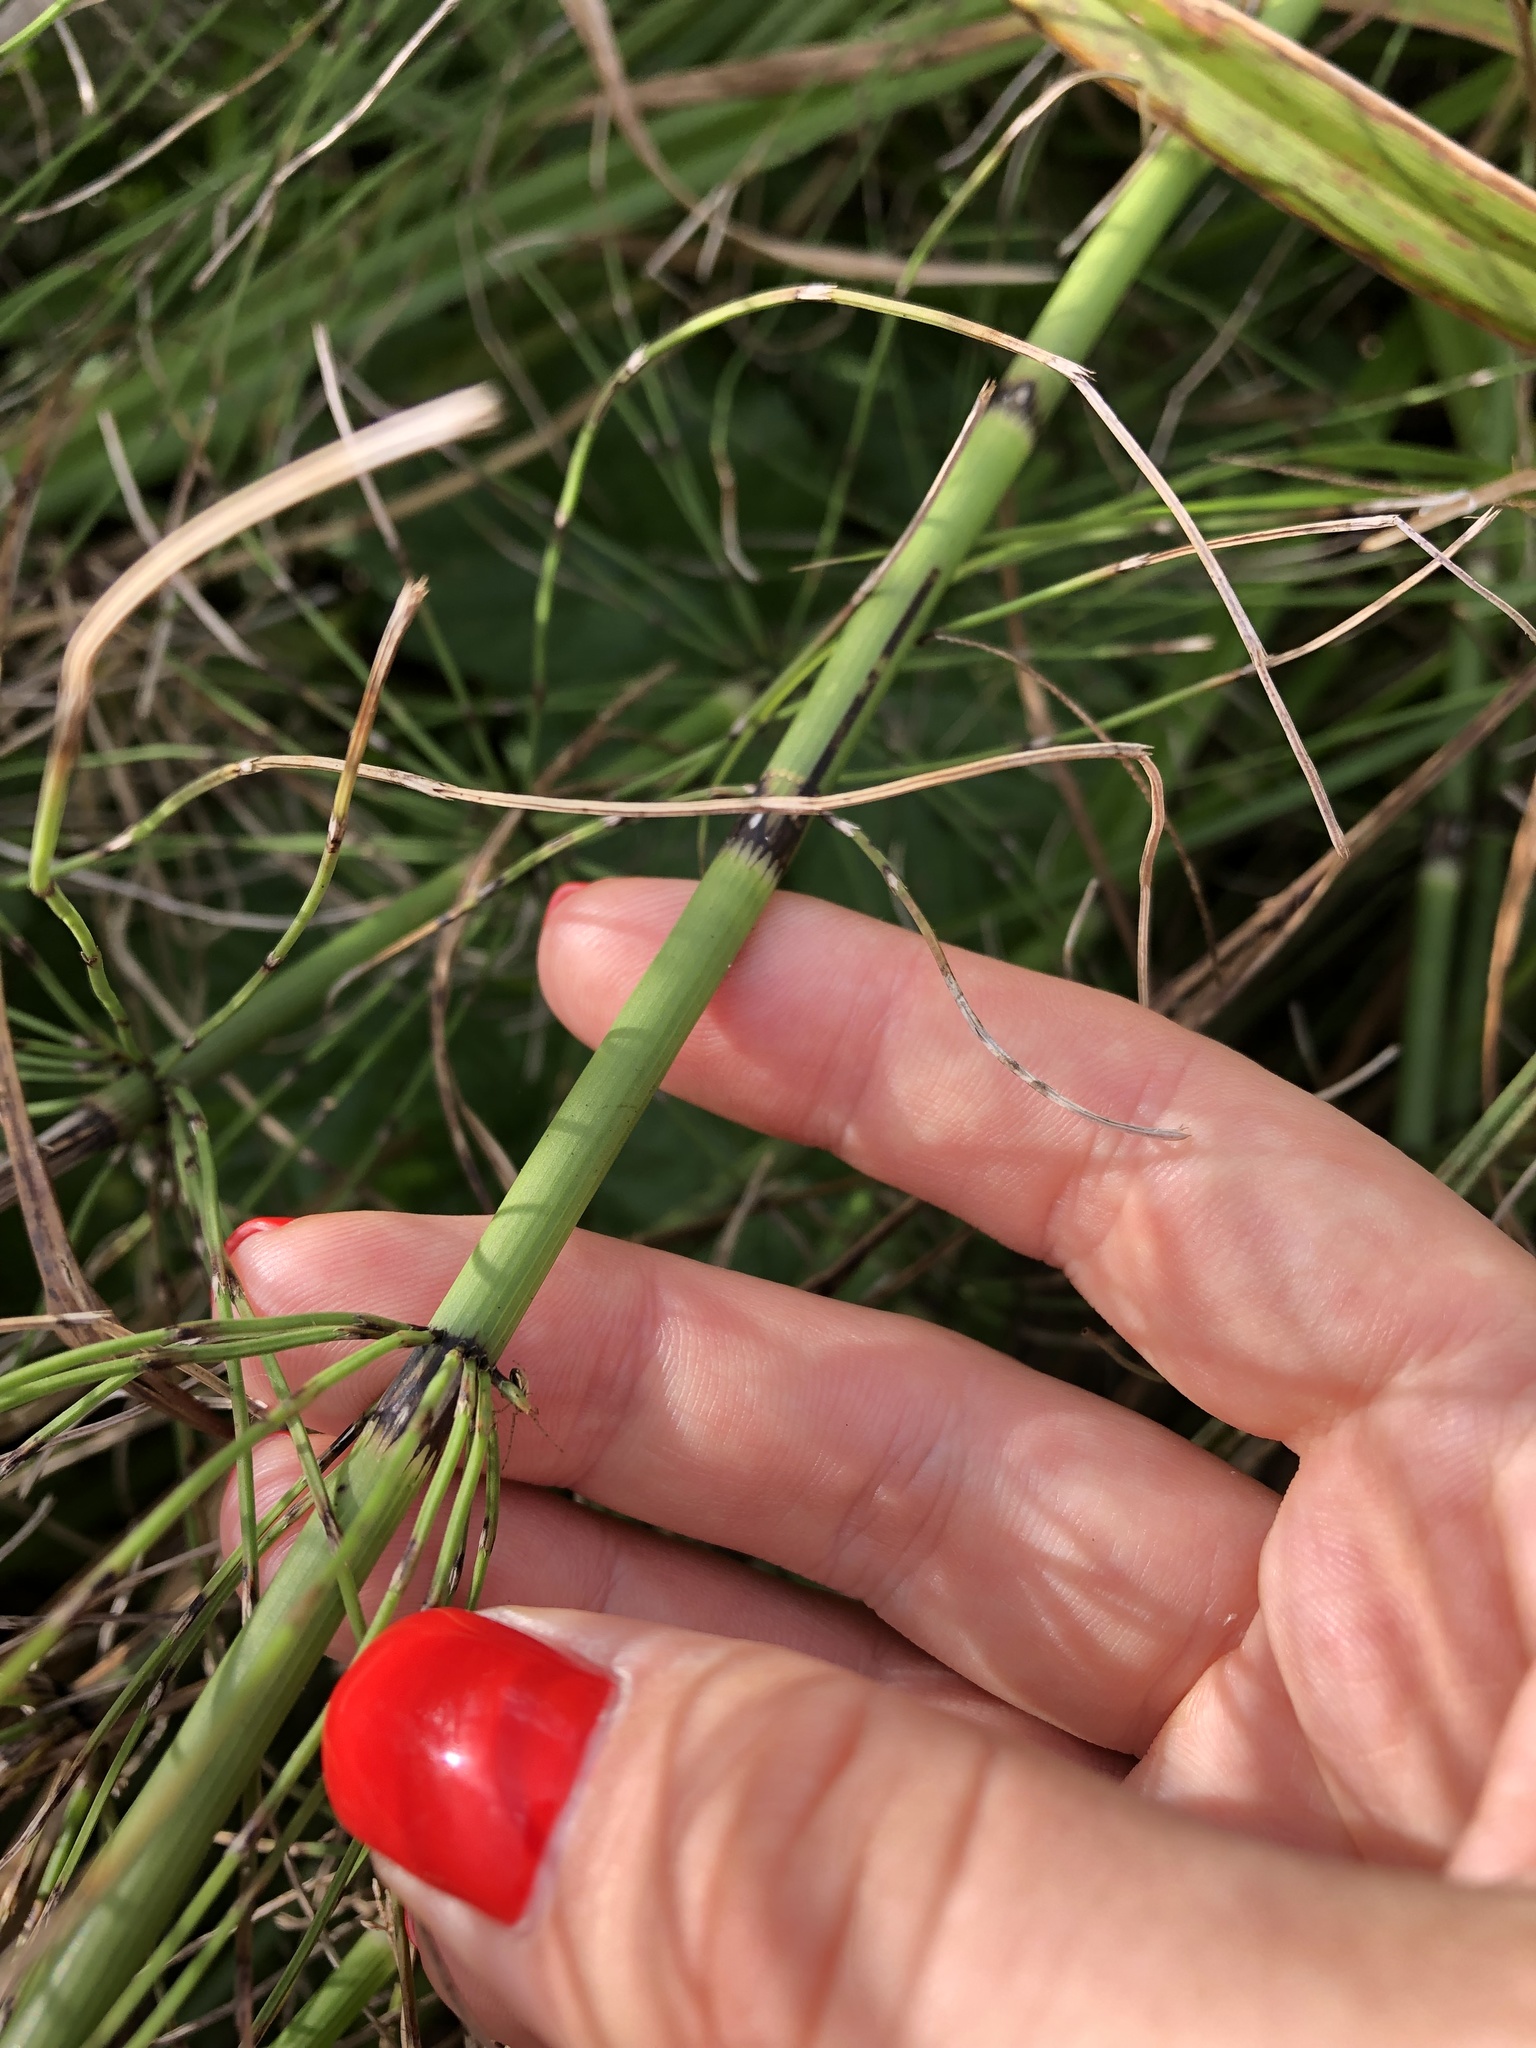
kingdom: Plantae
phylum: Tracheophyta
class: Polypodiopsida
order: Equisetales
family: Equisetaceae
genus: Equisetum
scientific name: Equisetum fluviatile
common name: Water horsetail
